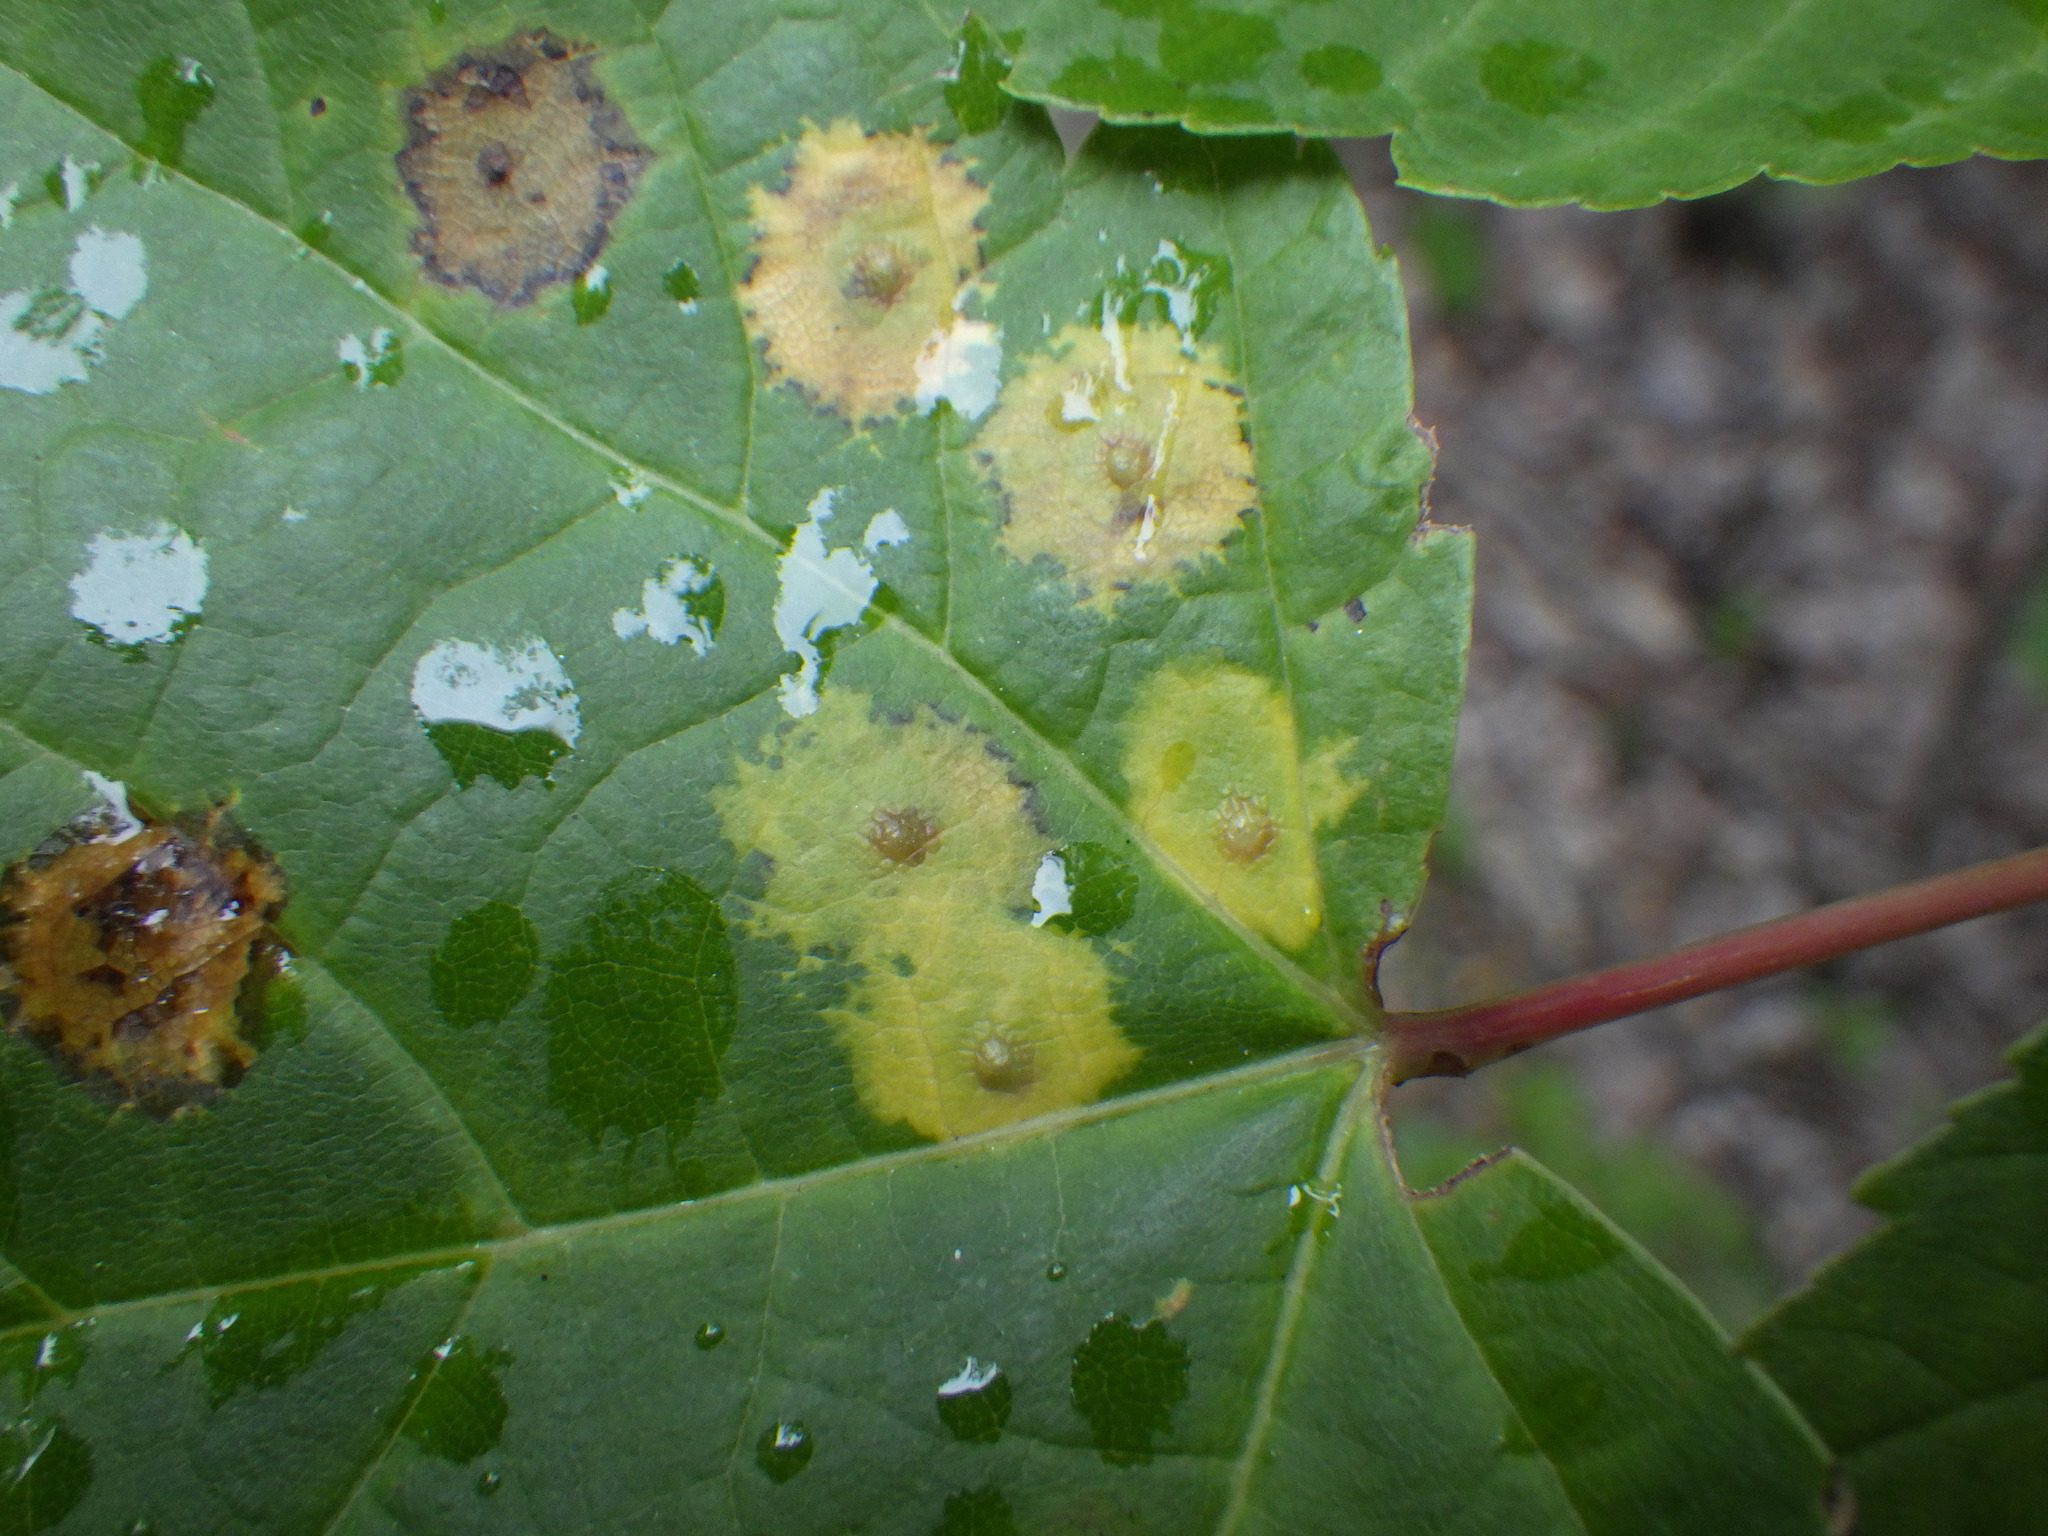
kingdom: Animalia
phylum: Arthropoda
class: Insecta
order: Diptera
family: Cecidomyiidae
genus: Acericecis
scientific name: Acericecis ocellaris
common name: Ocellate gall midge
